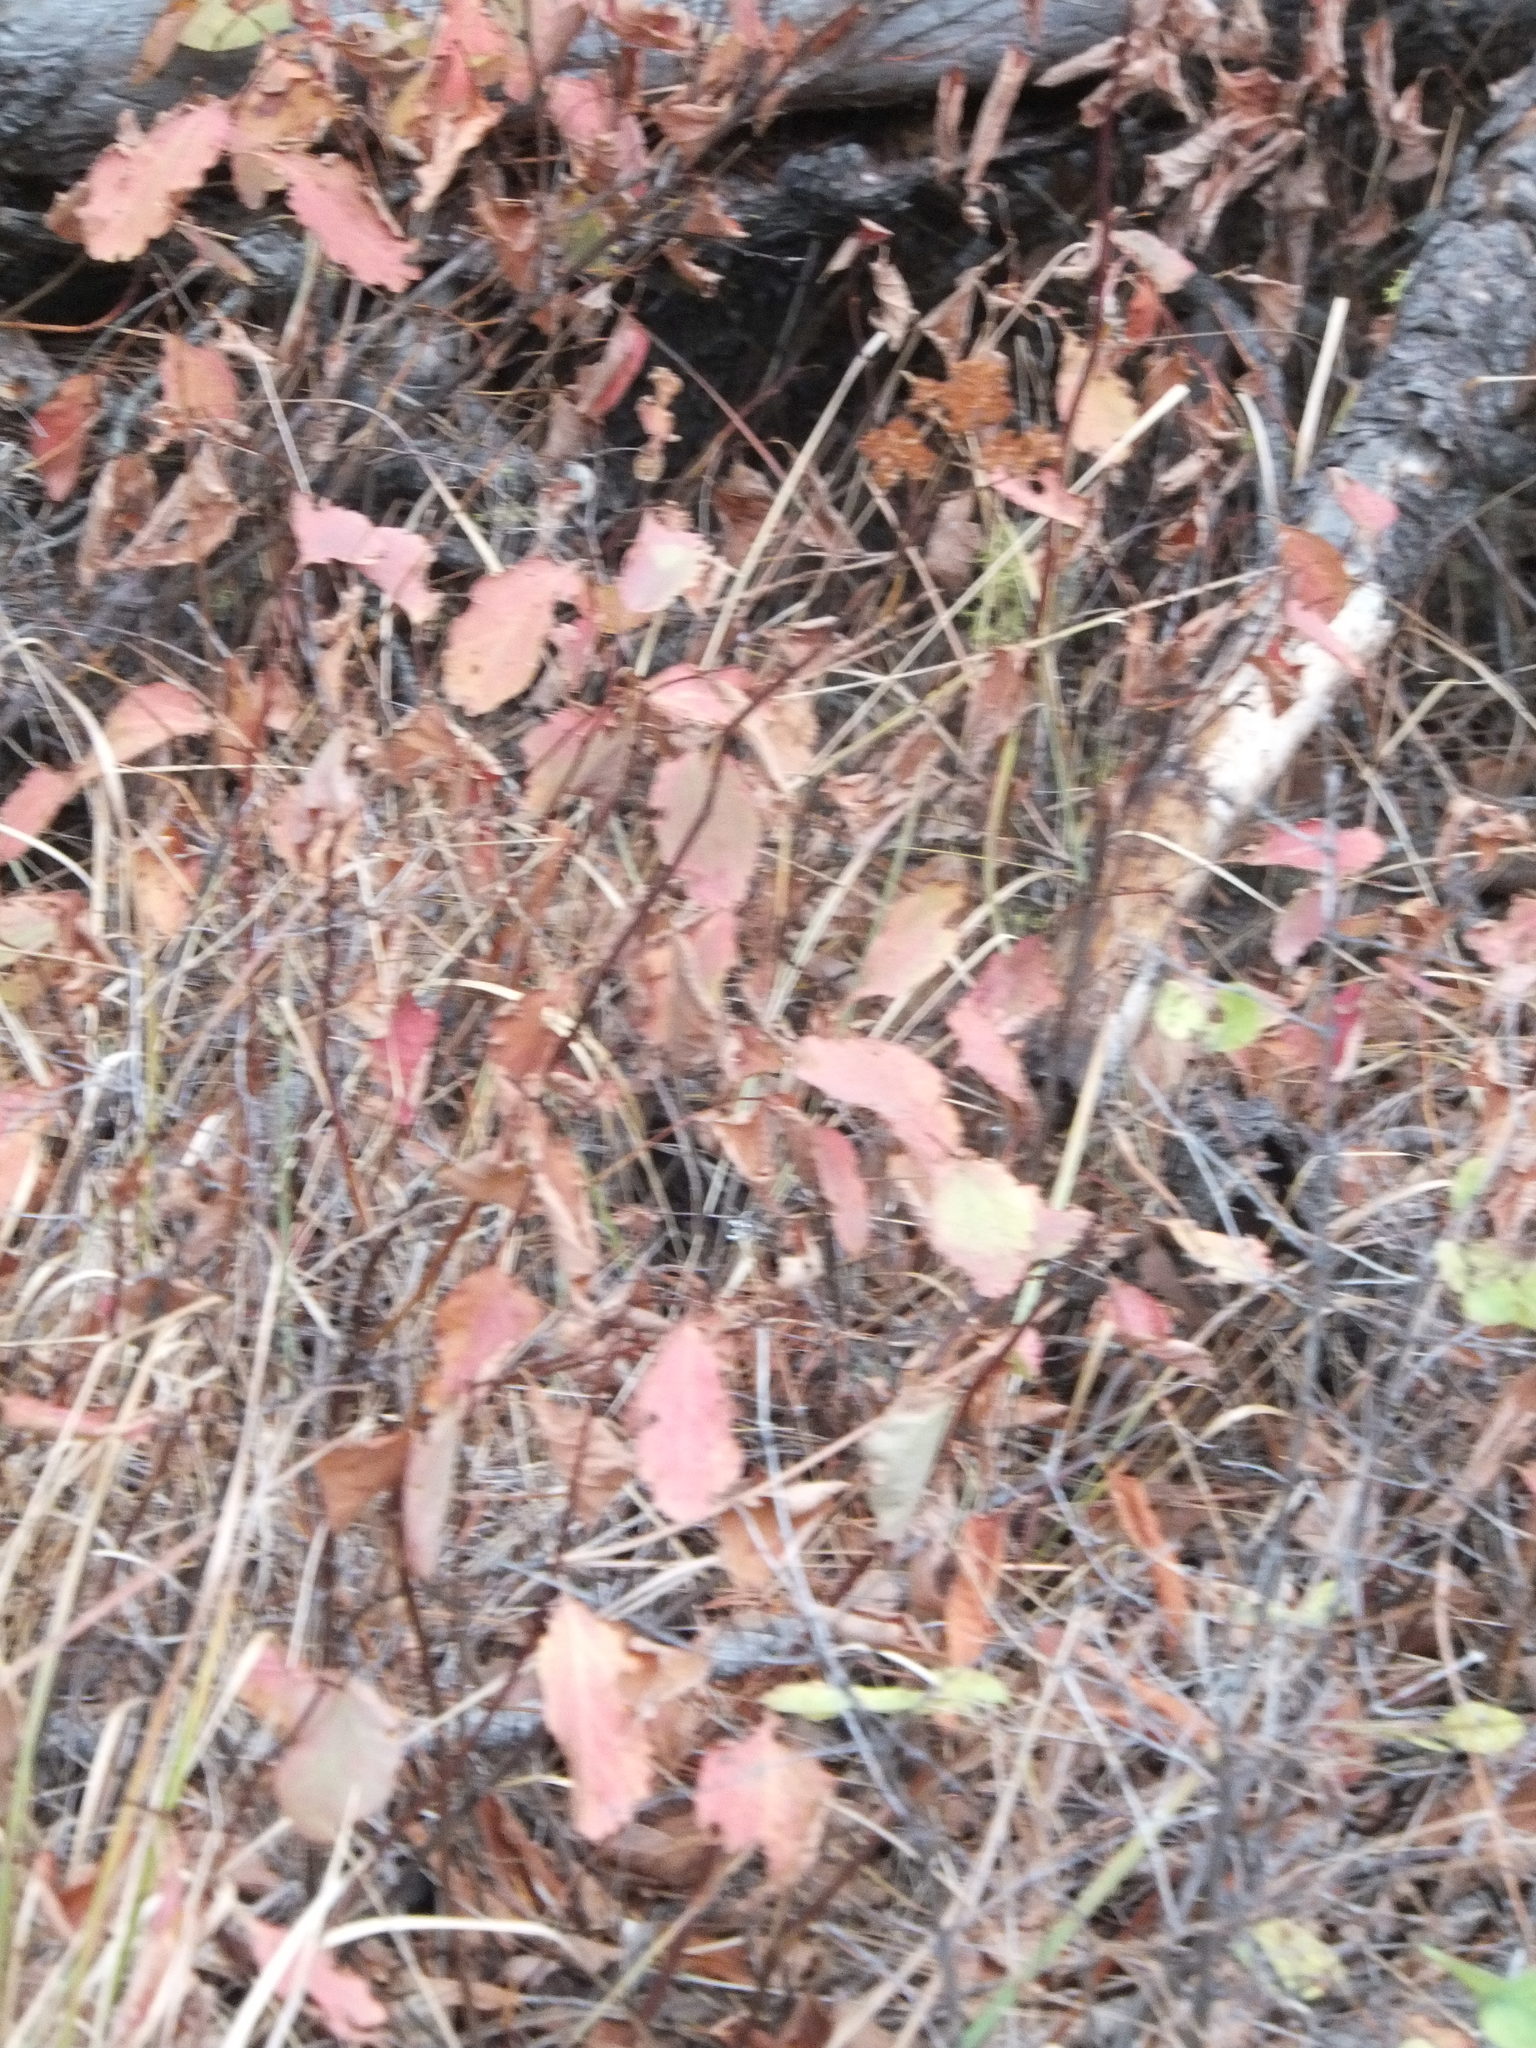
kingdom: Plantae
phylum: Tracheophyta
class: Magnoliopsida
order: Rosales
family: Rosaceae
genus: Spiraea
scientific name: Spiraea lucida
